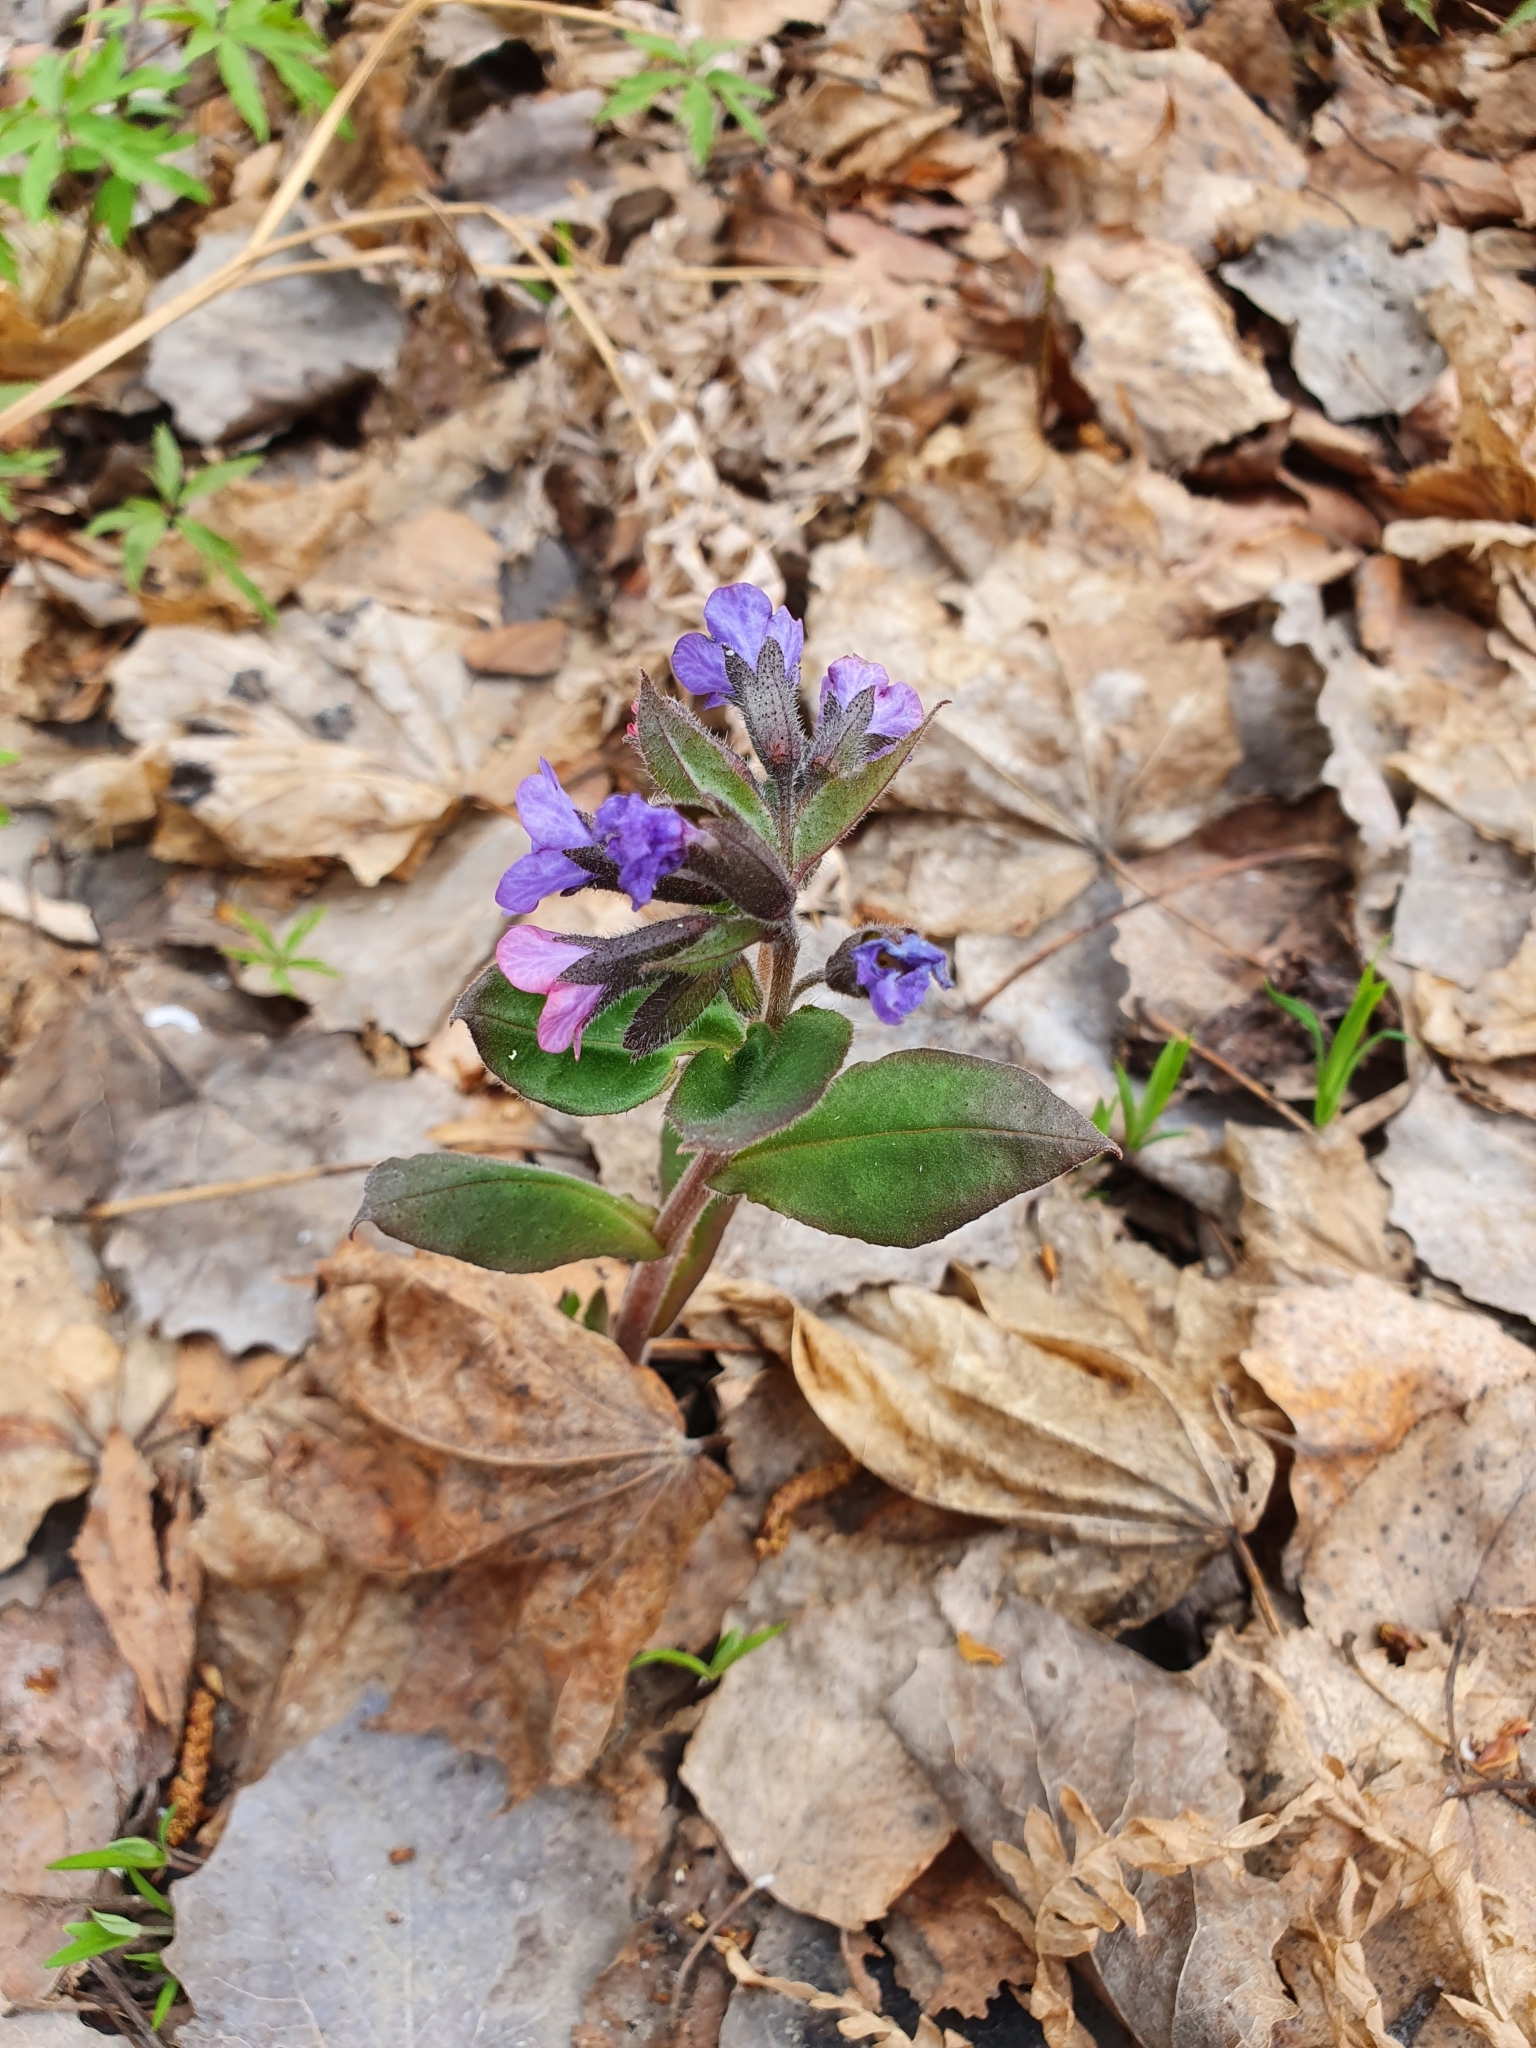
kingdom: Plantae
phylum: Tracheophyta
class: Magnoliopsida
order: Boraginales
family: Boraginaceae
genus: Pulmonaria
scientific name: Pulmonaria obscura
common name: Suffolk lungwort
